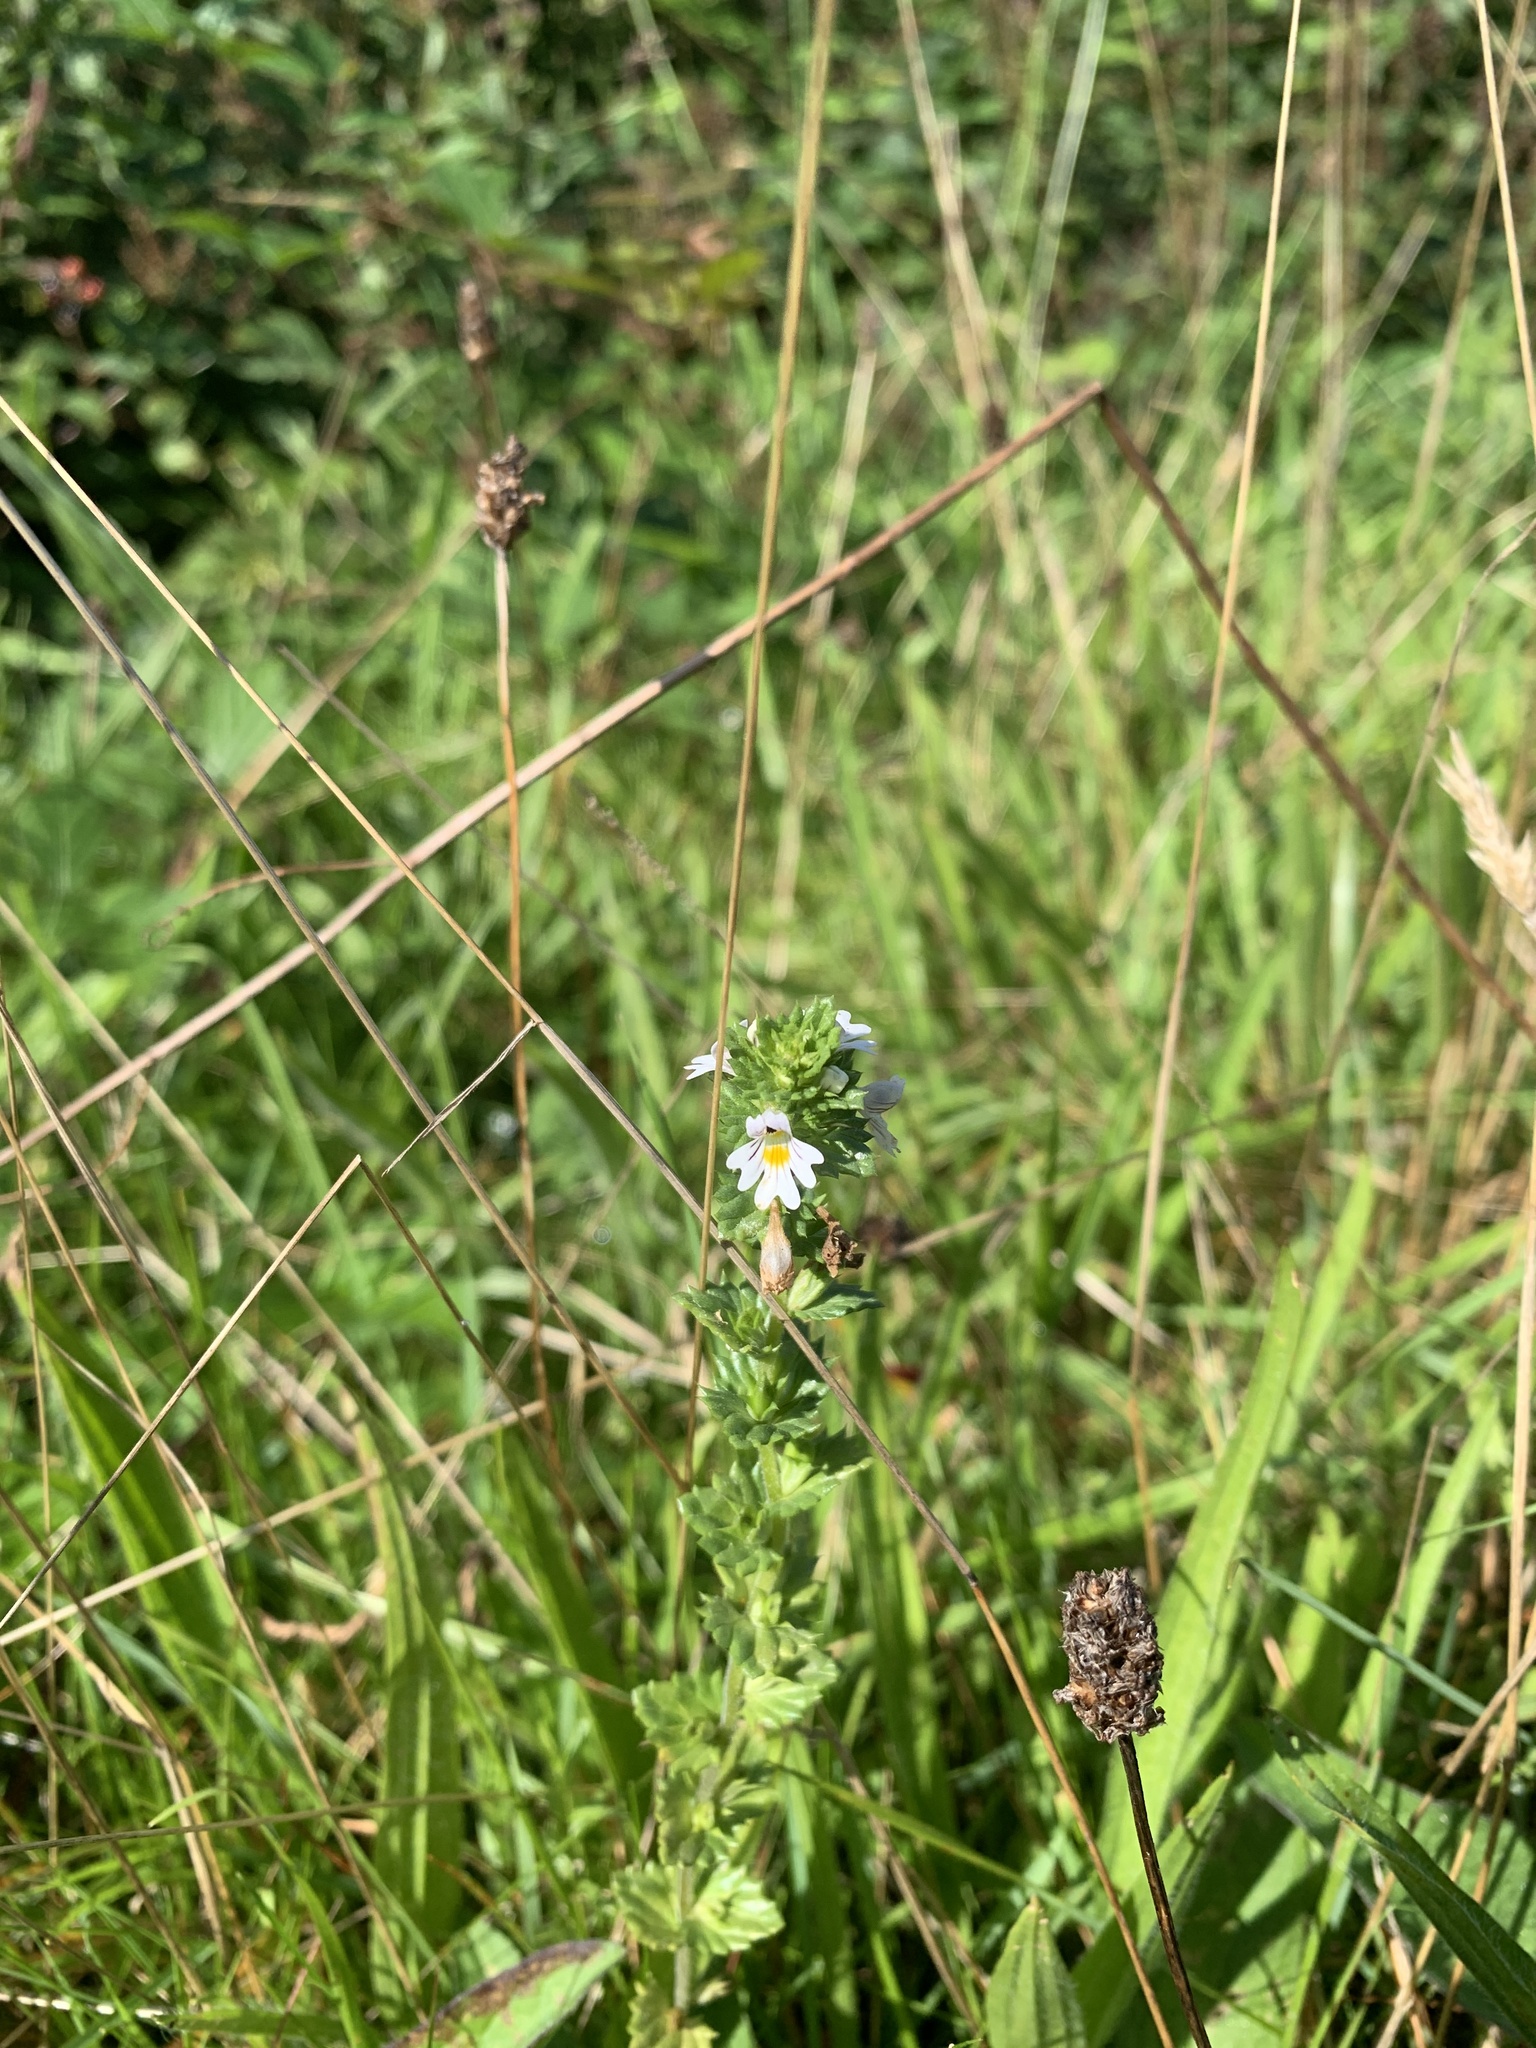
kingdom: Plantae
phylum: Tracheophyta
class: Magnoliopsida
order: Lamiales
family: Orobanchaceae
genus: Euphrasia
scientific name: Euphrasia nemorosa
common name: Common eyebright
